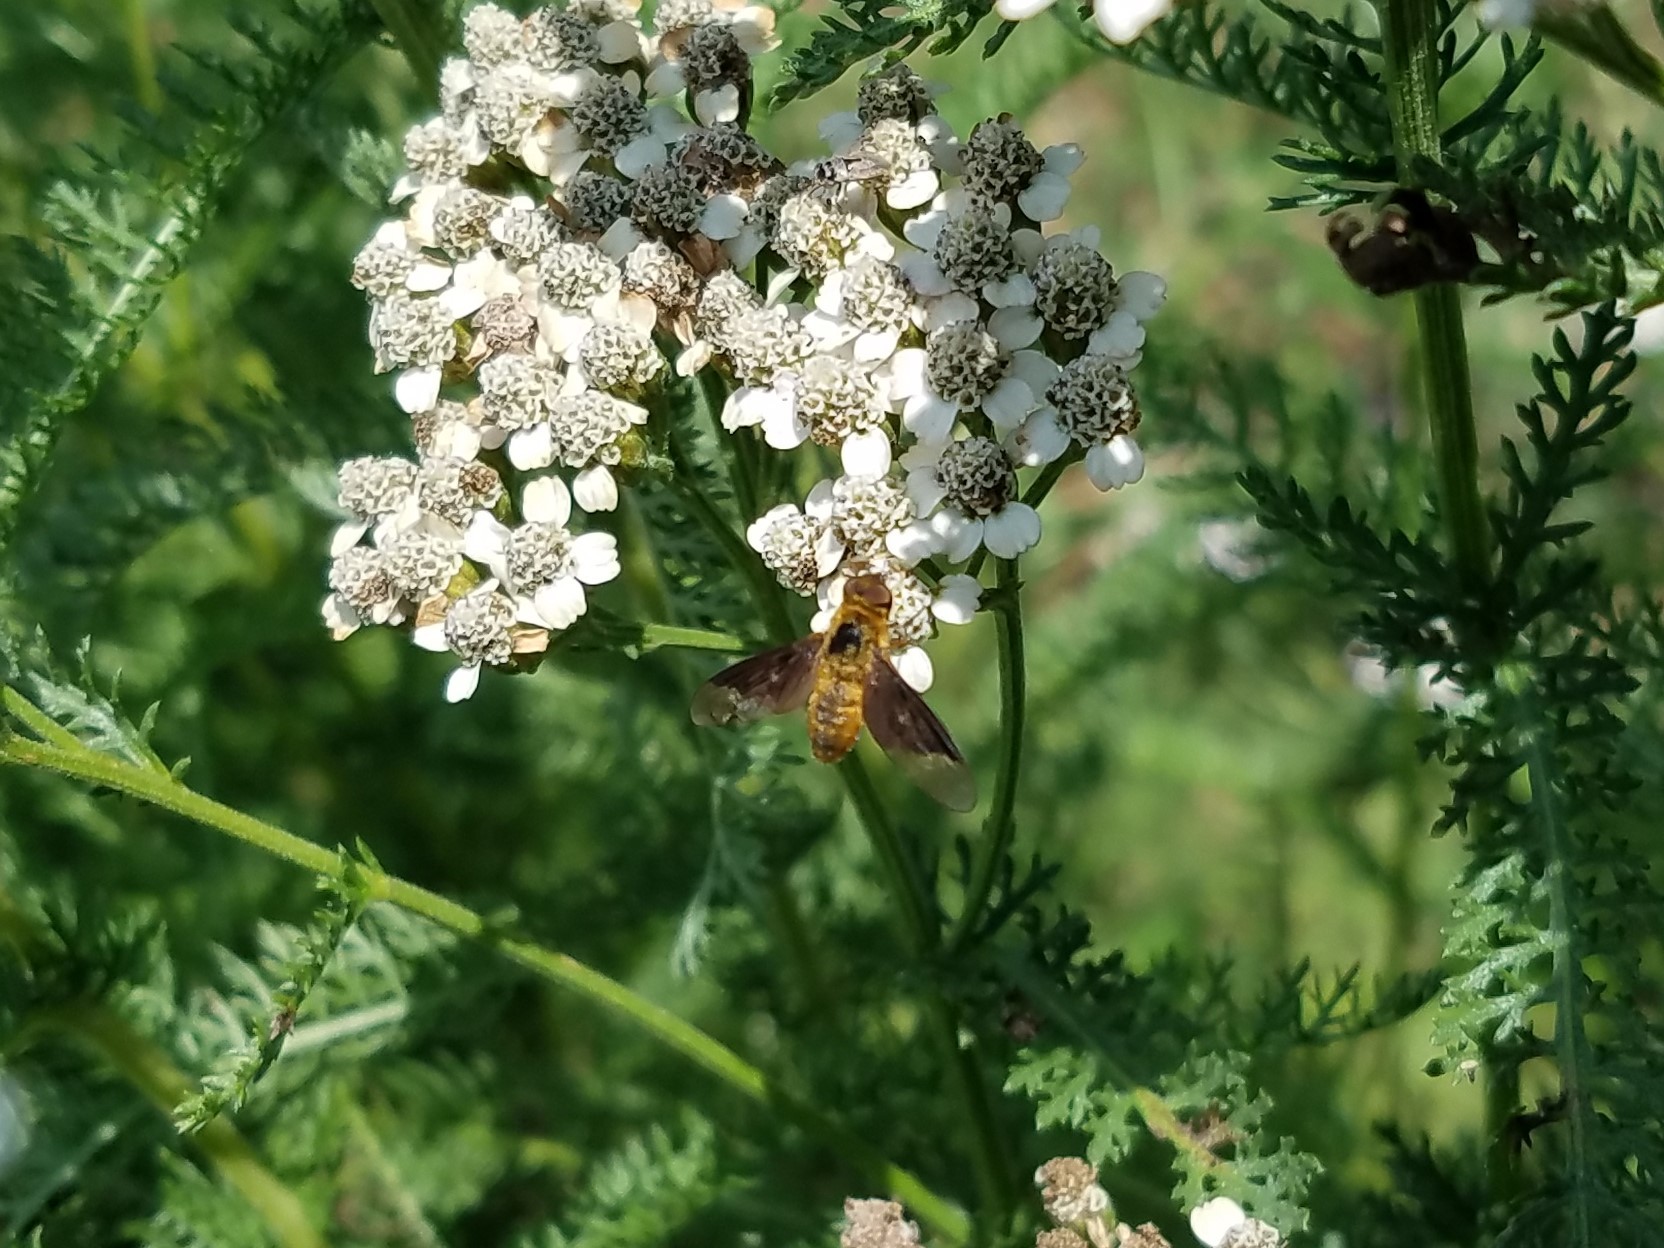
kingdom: Animalia
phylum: Arthropoda
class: Insecta
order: Diptera
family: Bombyliidae
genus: Chrysanthrax
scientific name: Chrysanthrax cypris
